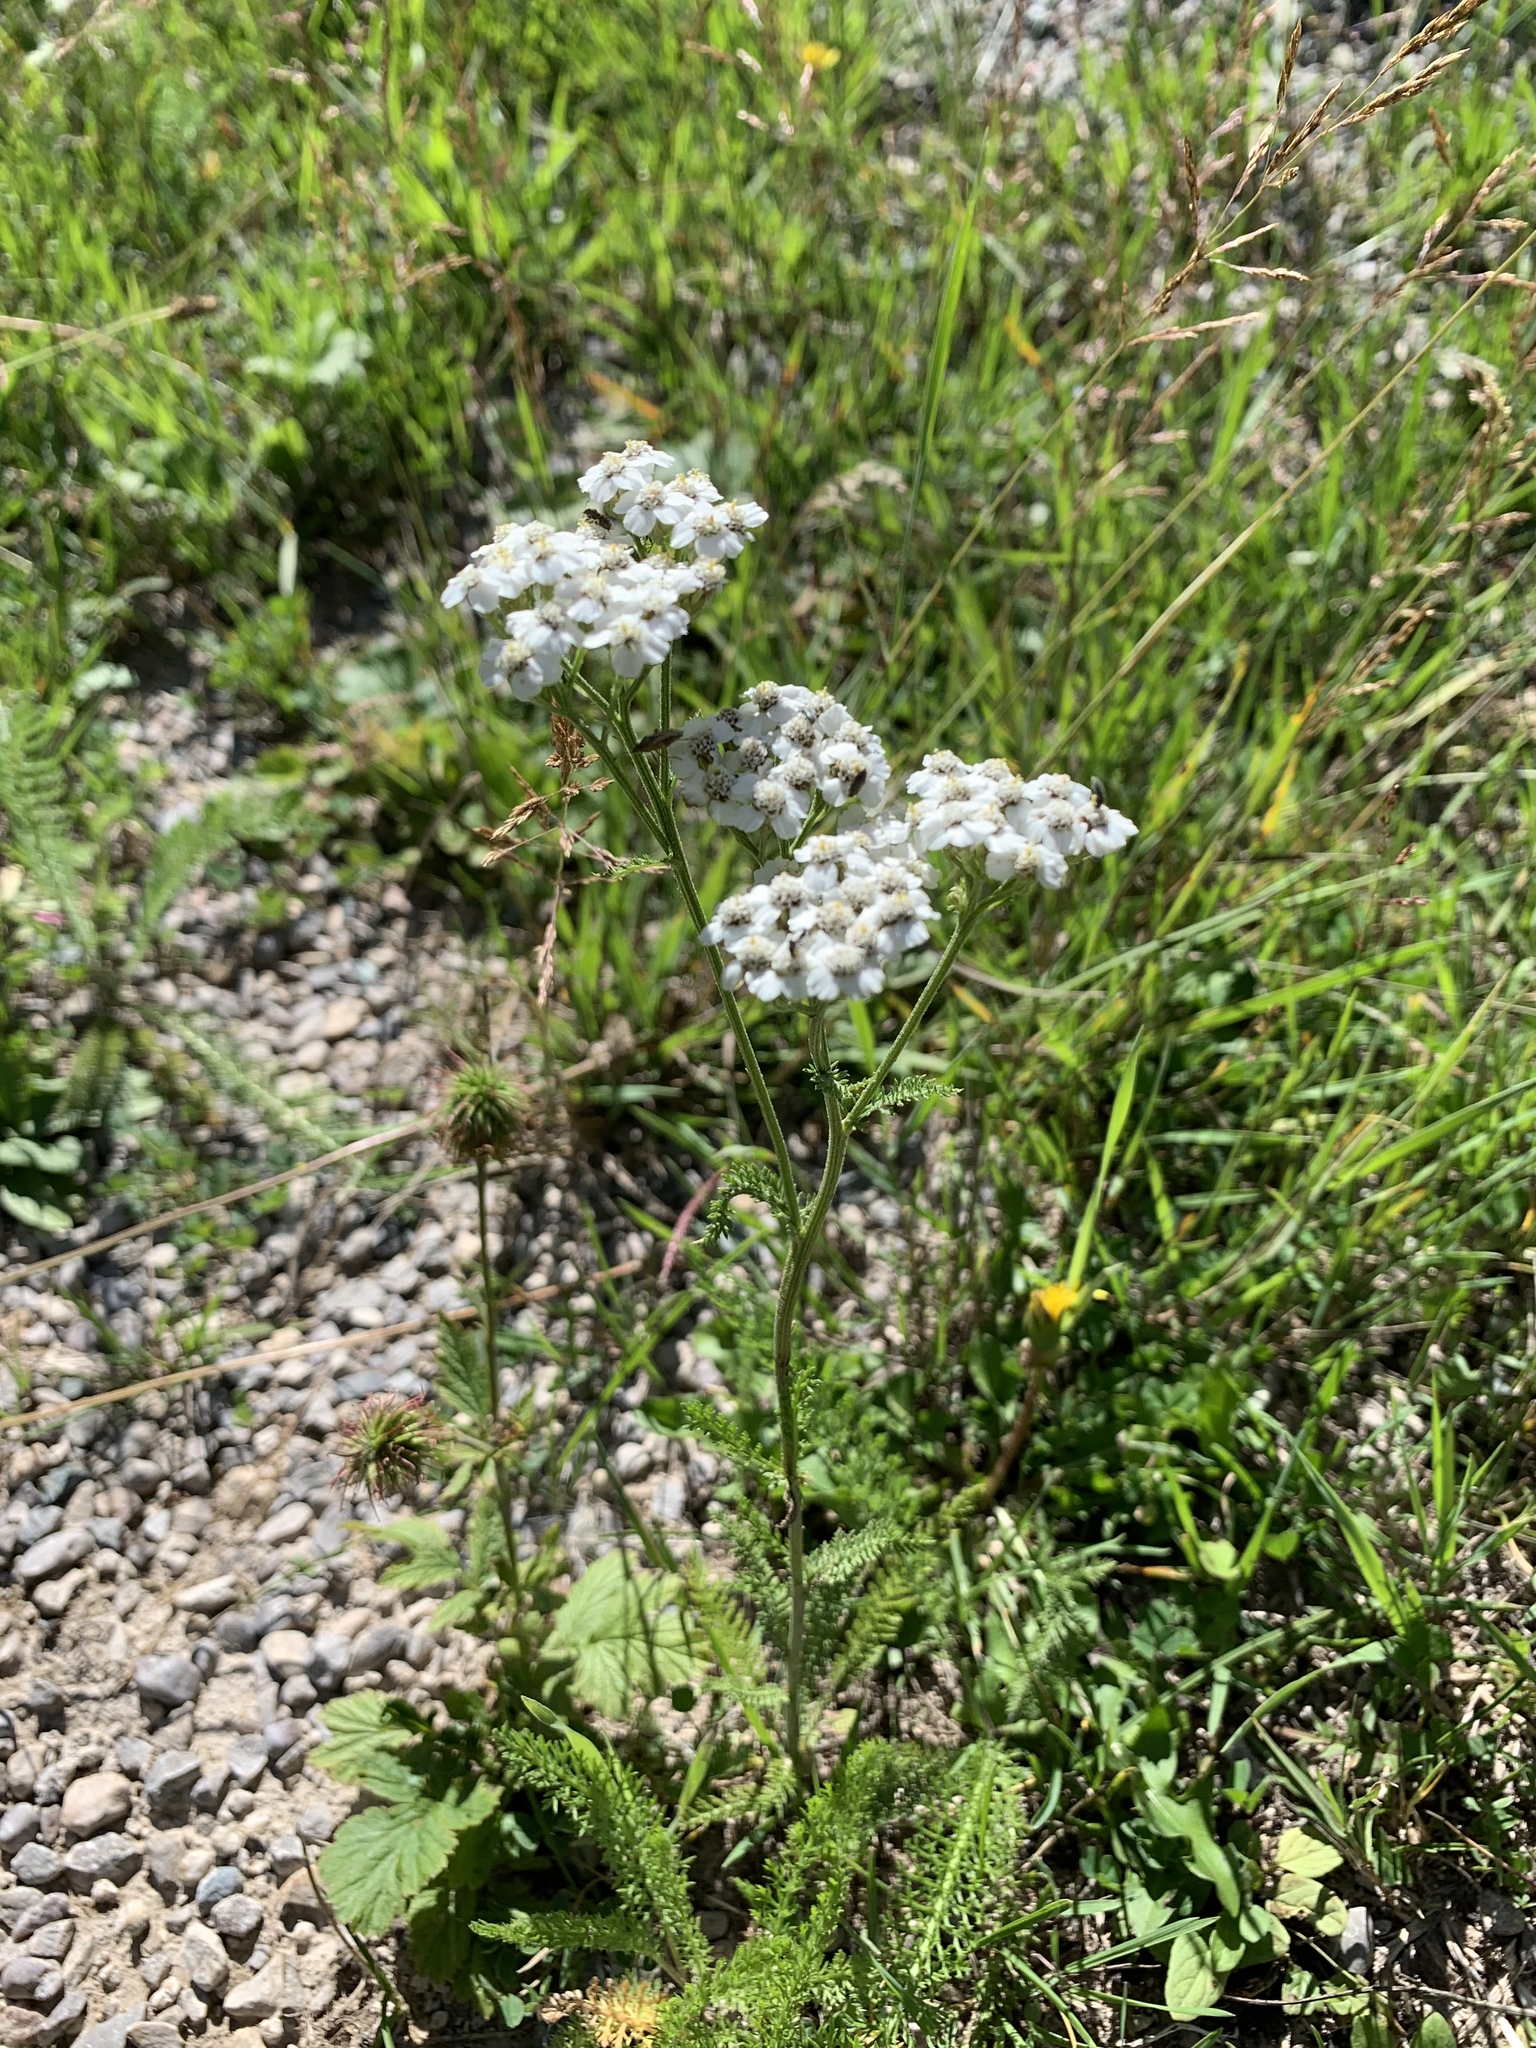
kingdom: Plantae
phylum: Tracheophyta
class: Magnoliopsida
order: Asterales
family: Asteraceae
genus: Achillea
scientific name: Achillea millefolium
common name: Yarrow
